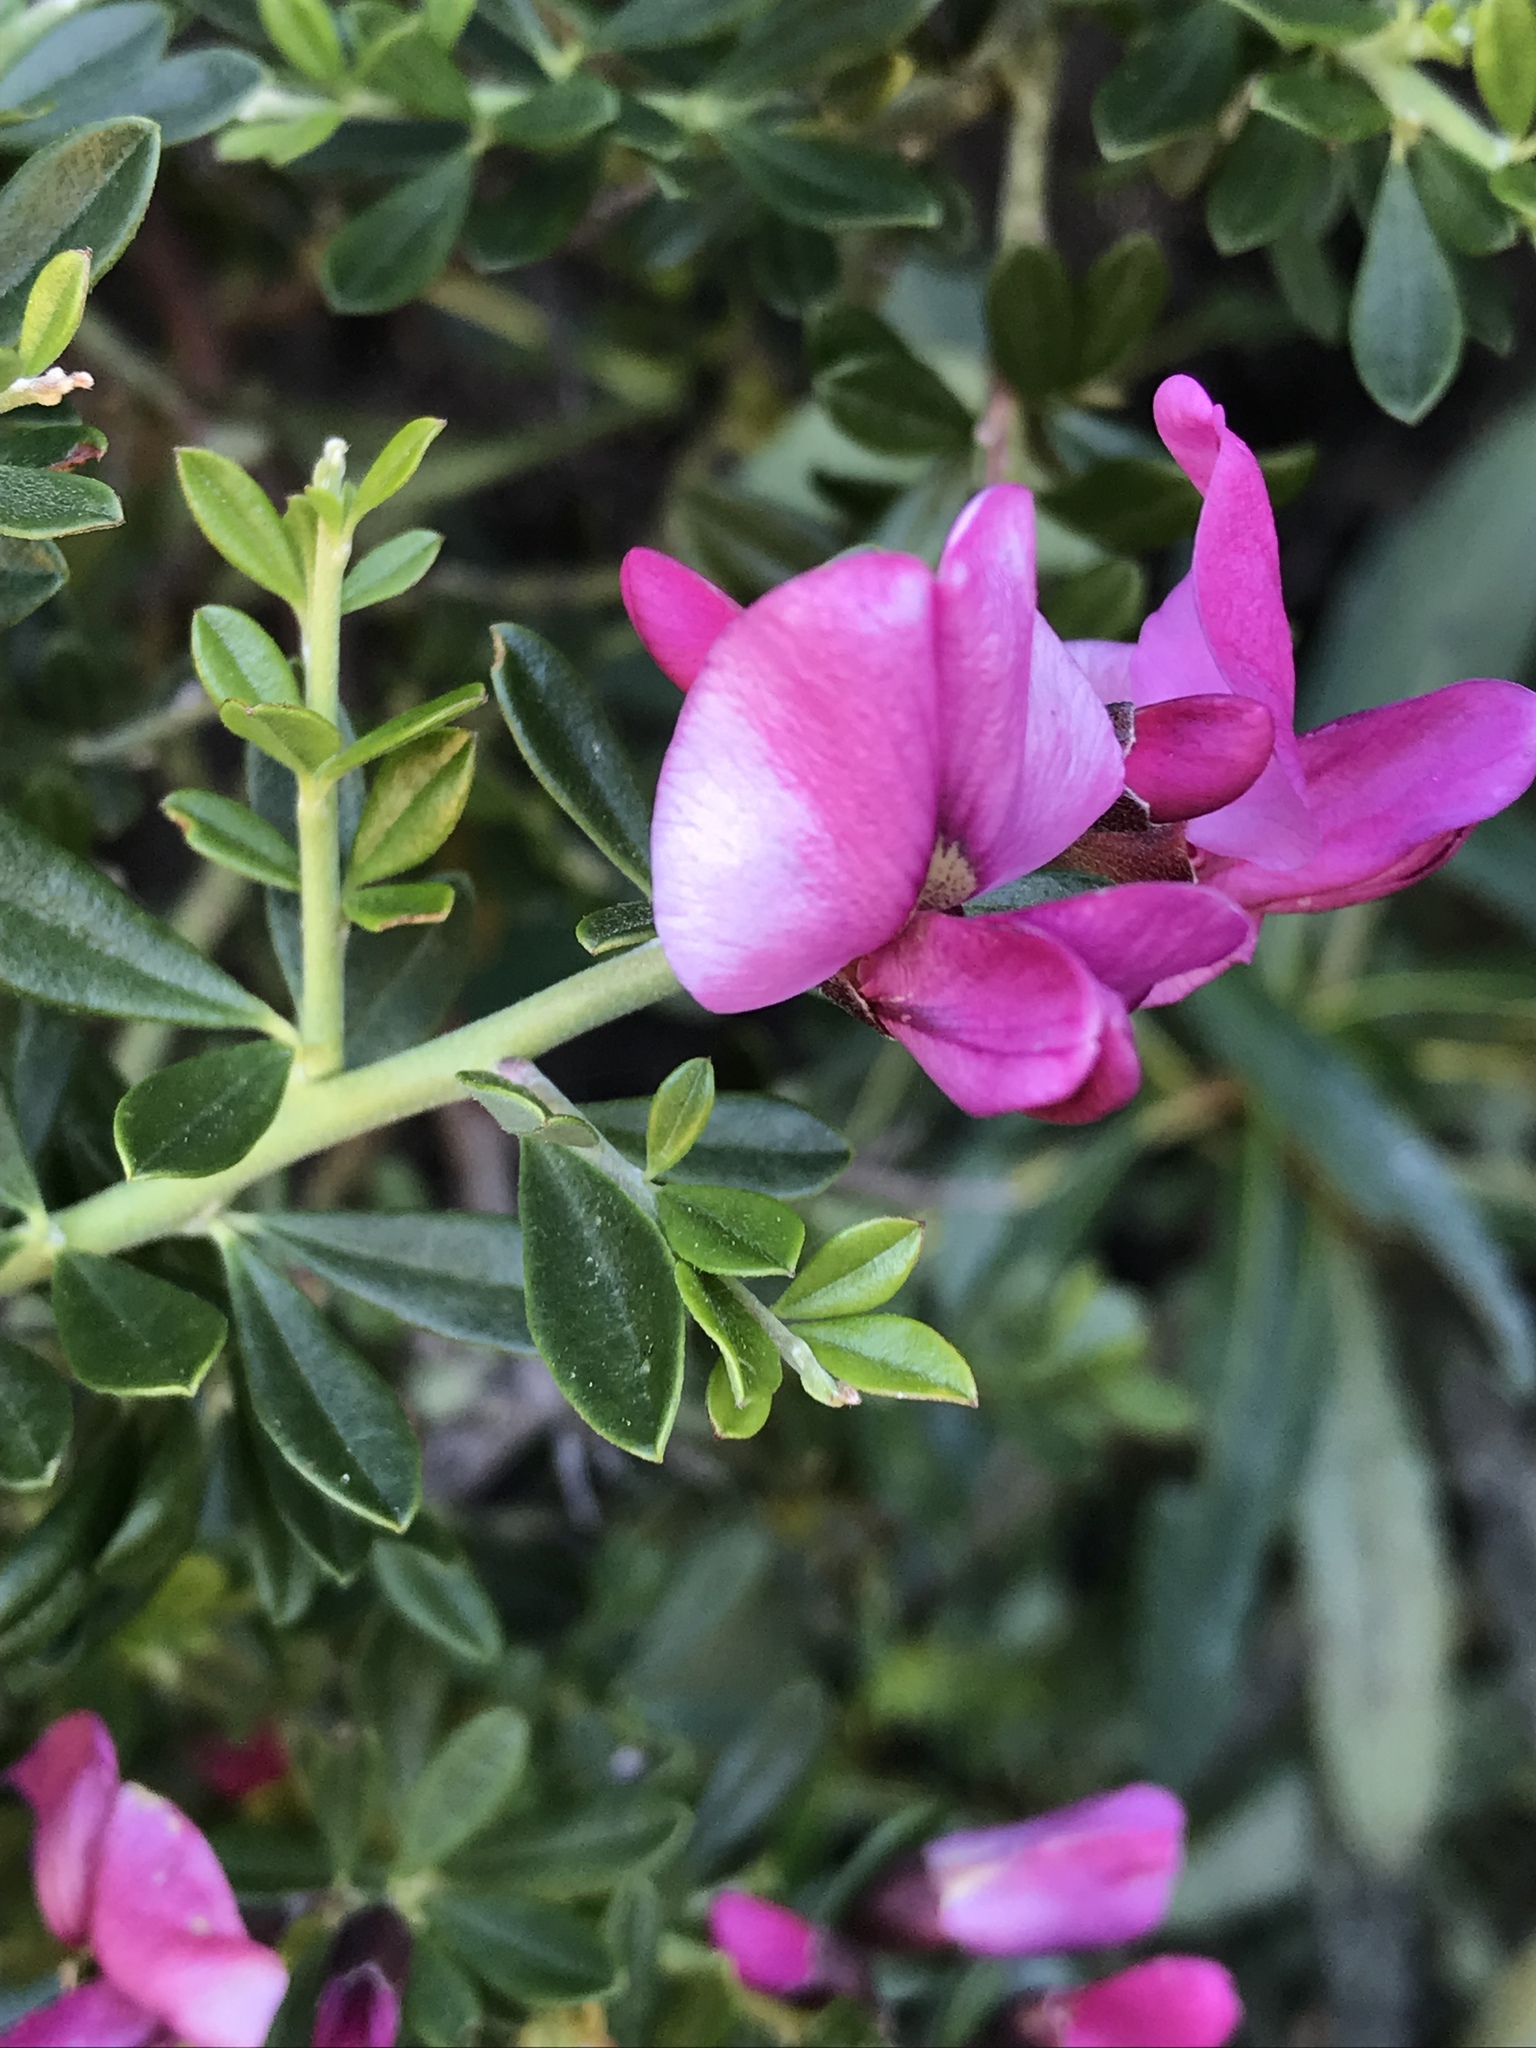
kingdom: Plantae
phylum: Tracheophyta
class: Magnoliopsida
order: Fabales
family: Fabaceae
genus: Pickeringia
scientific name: Pickeringia montana
